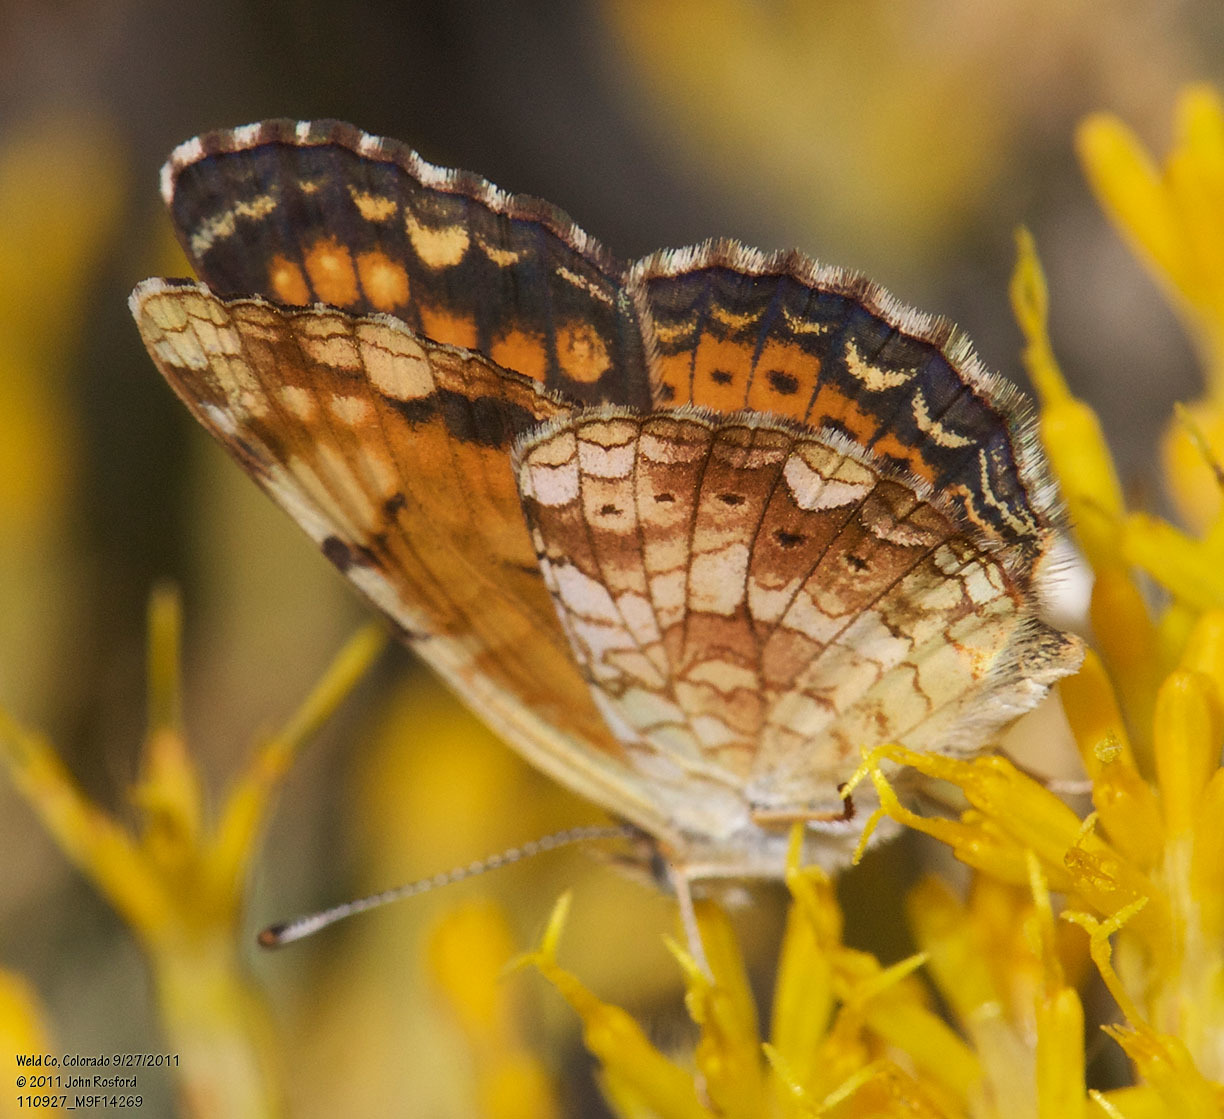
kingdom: Animalia
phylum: Arthropoda
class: Insecta
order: Lepidoptera
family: Nymphalidae
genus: Phyciodes
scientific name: Phyciodes tharos
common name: Pearl crescent
